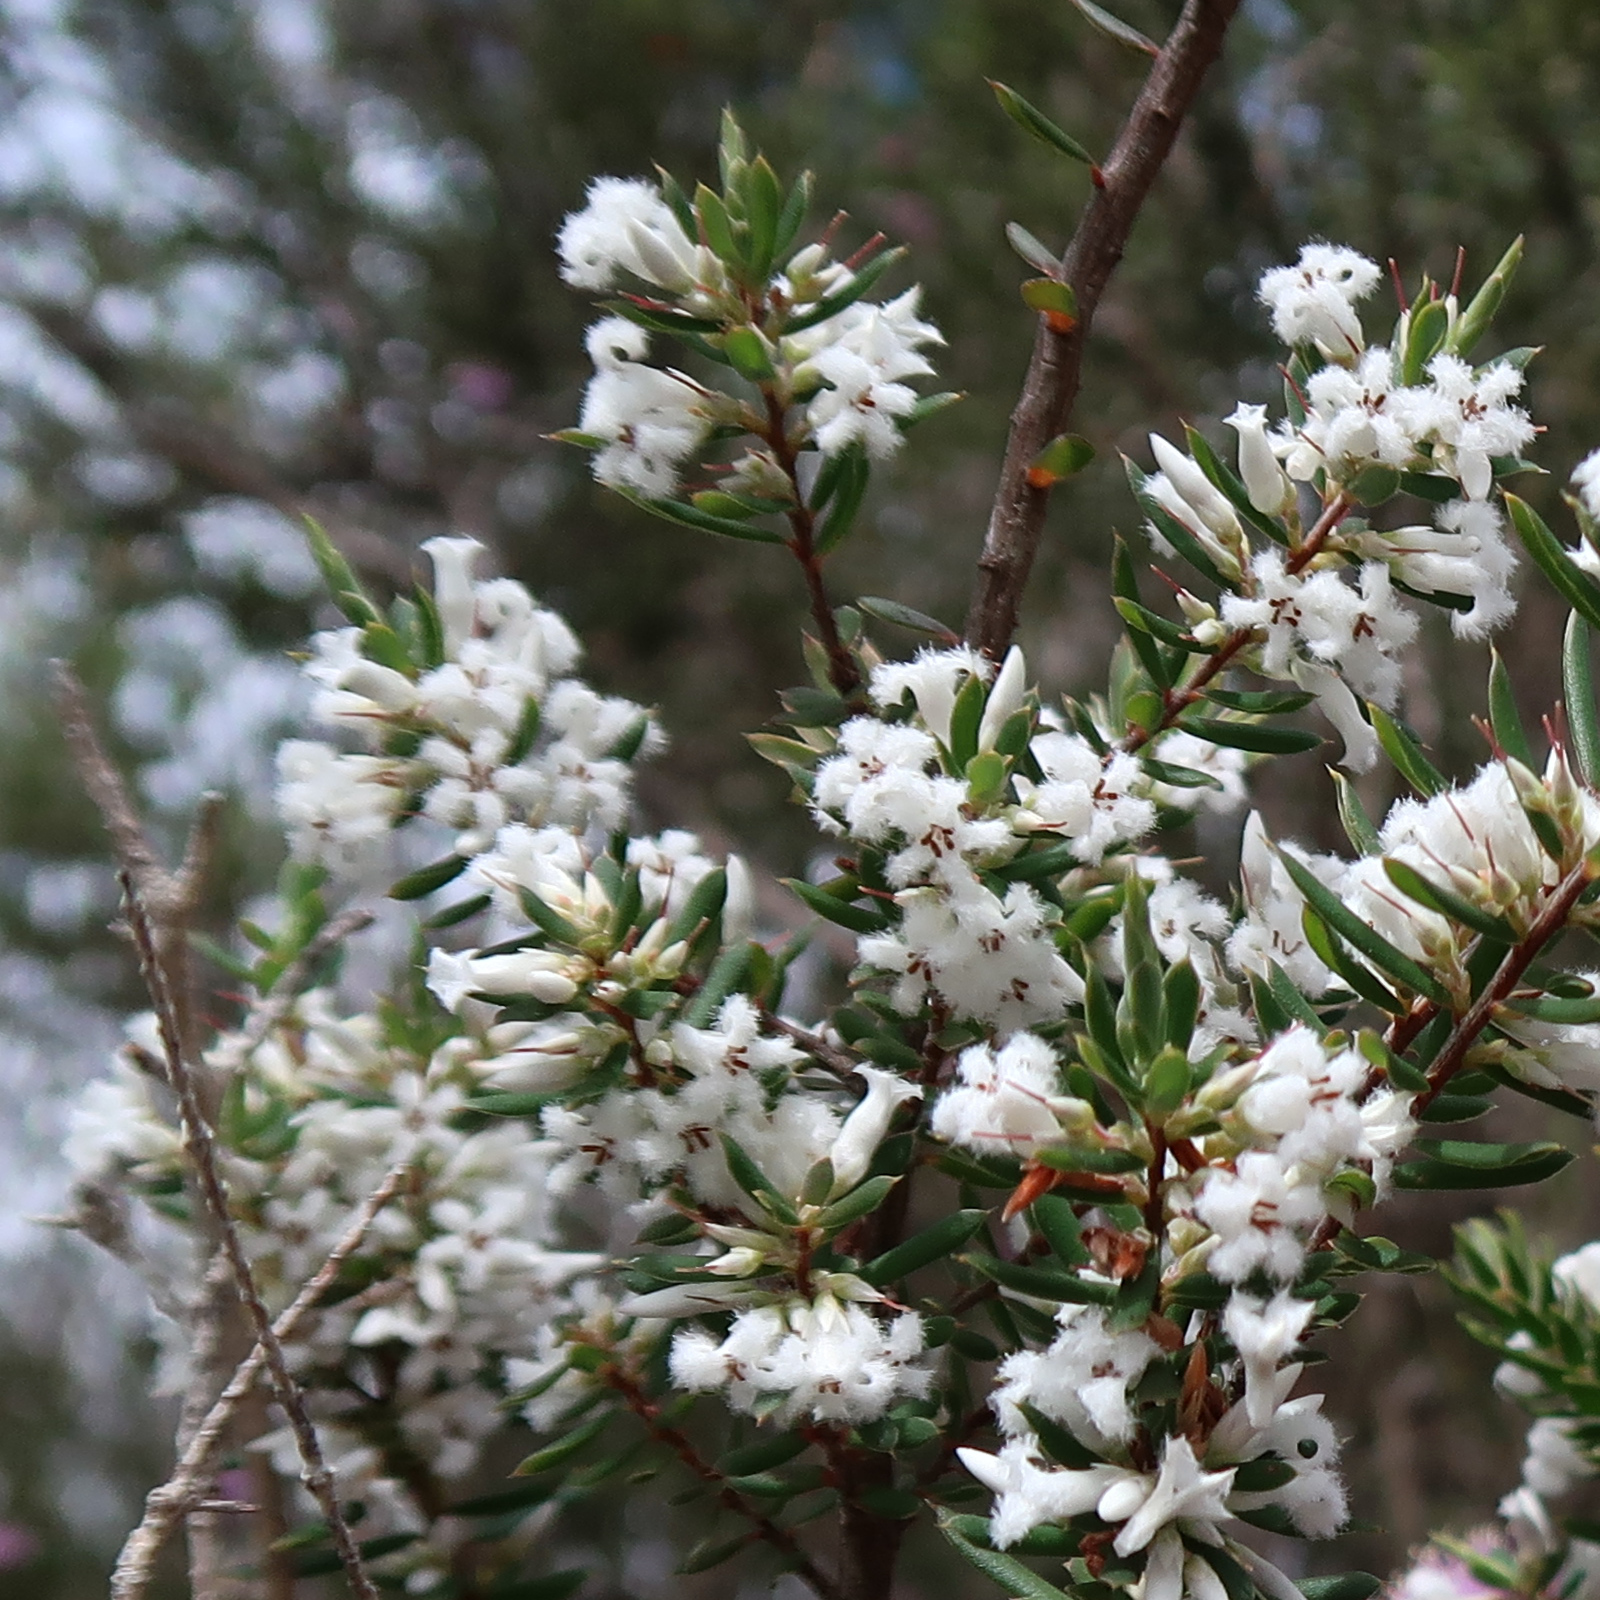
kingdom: Plantae
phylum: Tracheophyta
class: Magnoliopsida
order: Ericales
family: Ericaceae
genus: Styphelia
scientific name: Styphelia ericoides
